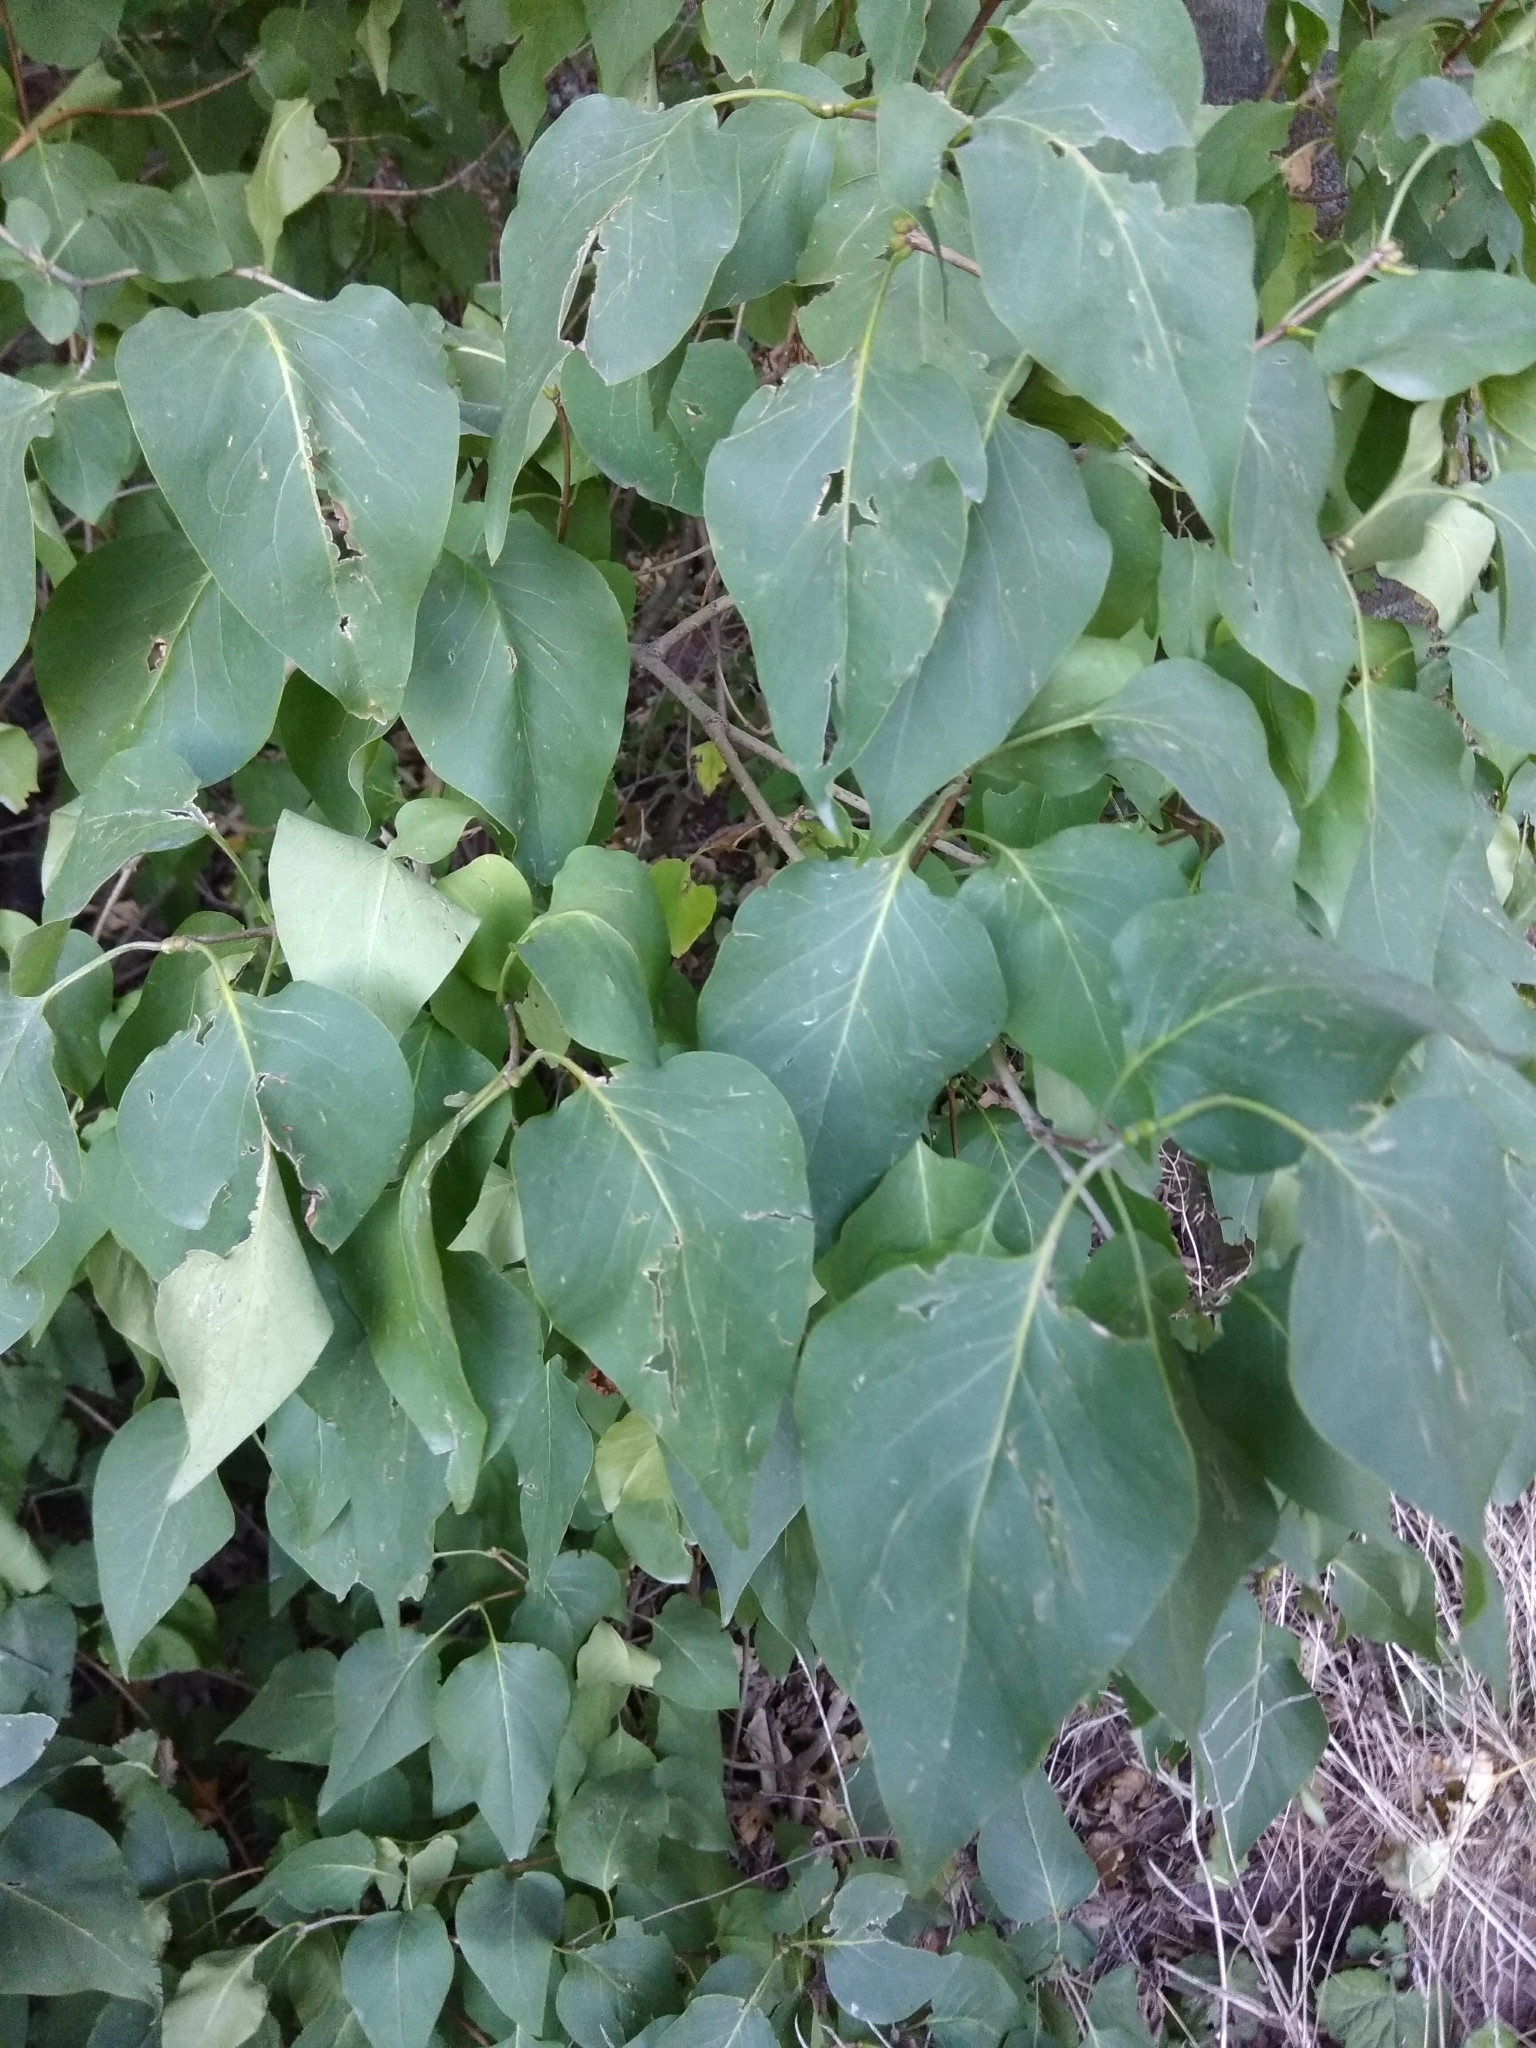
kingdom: Plantae
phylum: Tracheophyta
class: Magnoliopsida
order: Lamiales
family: Oleaceae
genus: Syringa
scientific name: Syringa vulgaris
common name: Common lilac
